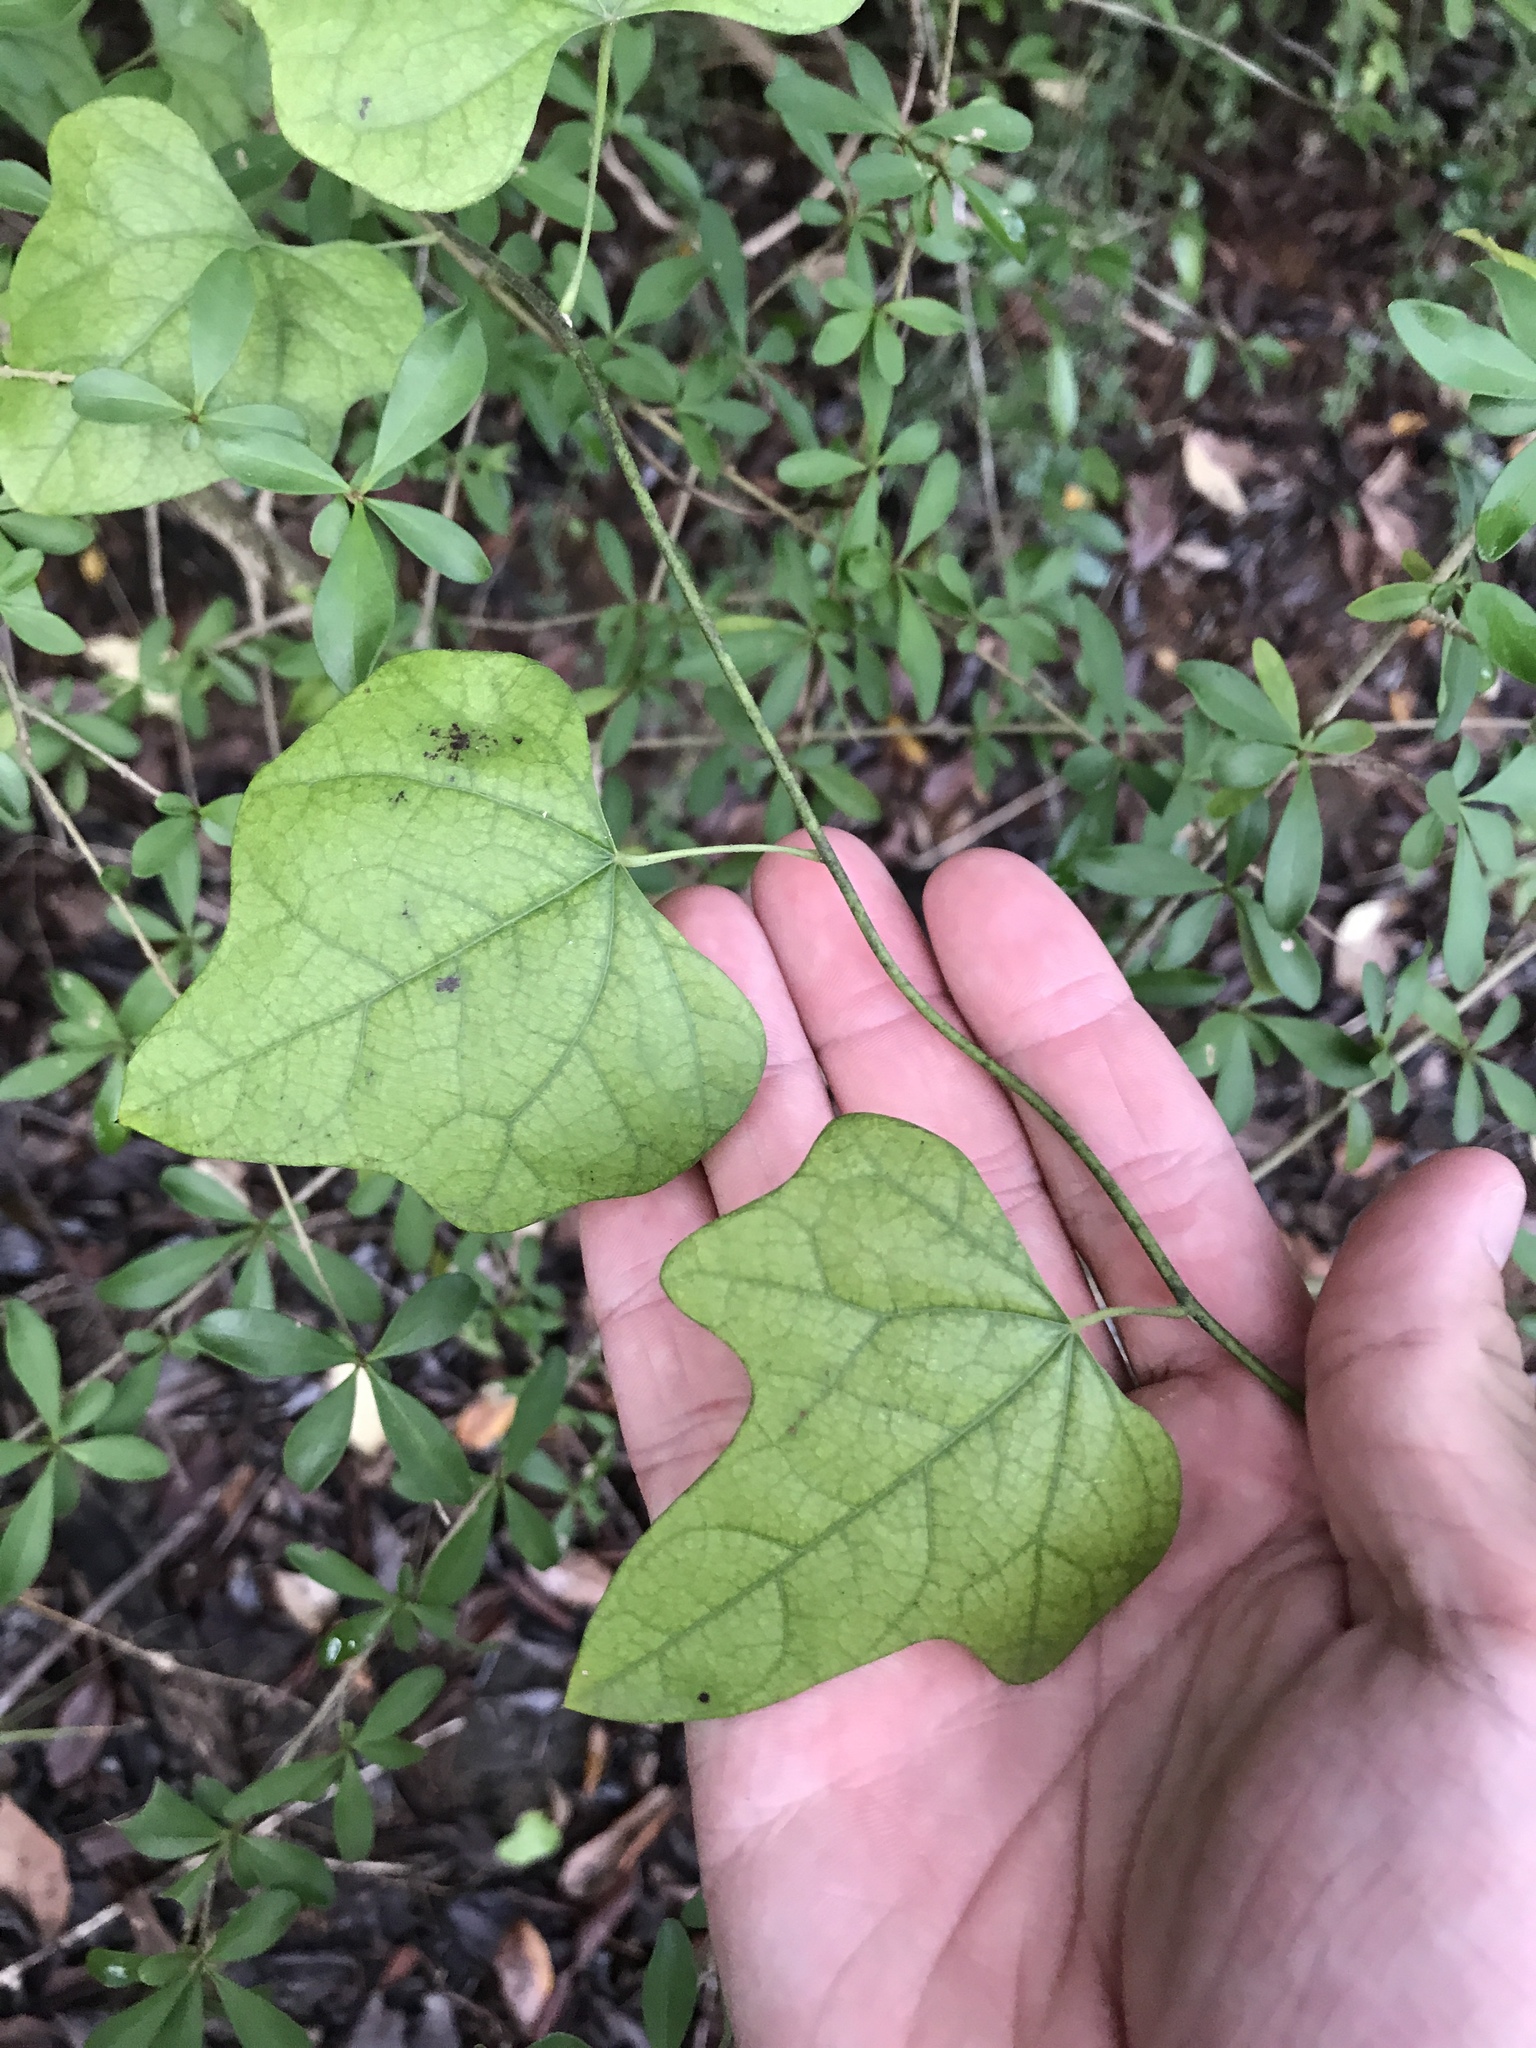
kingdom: Plantae
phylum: Tracheophyta
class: Magnoliopsida
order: Ranunculales
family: Menispermaceae
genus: Cocculus
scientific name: Cocculus carolinus
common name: Carolina moonseed
